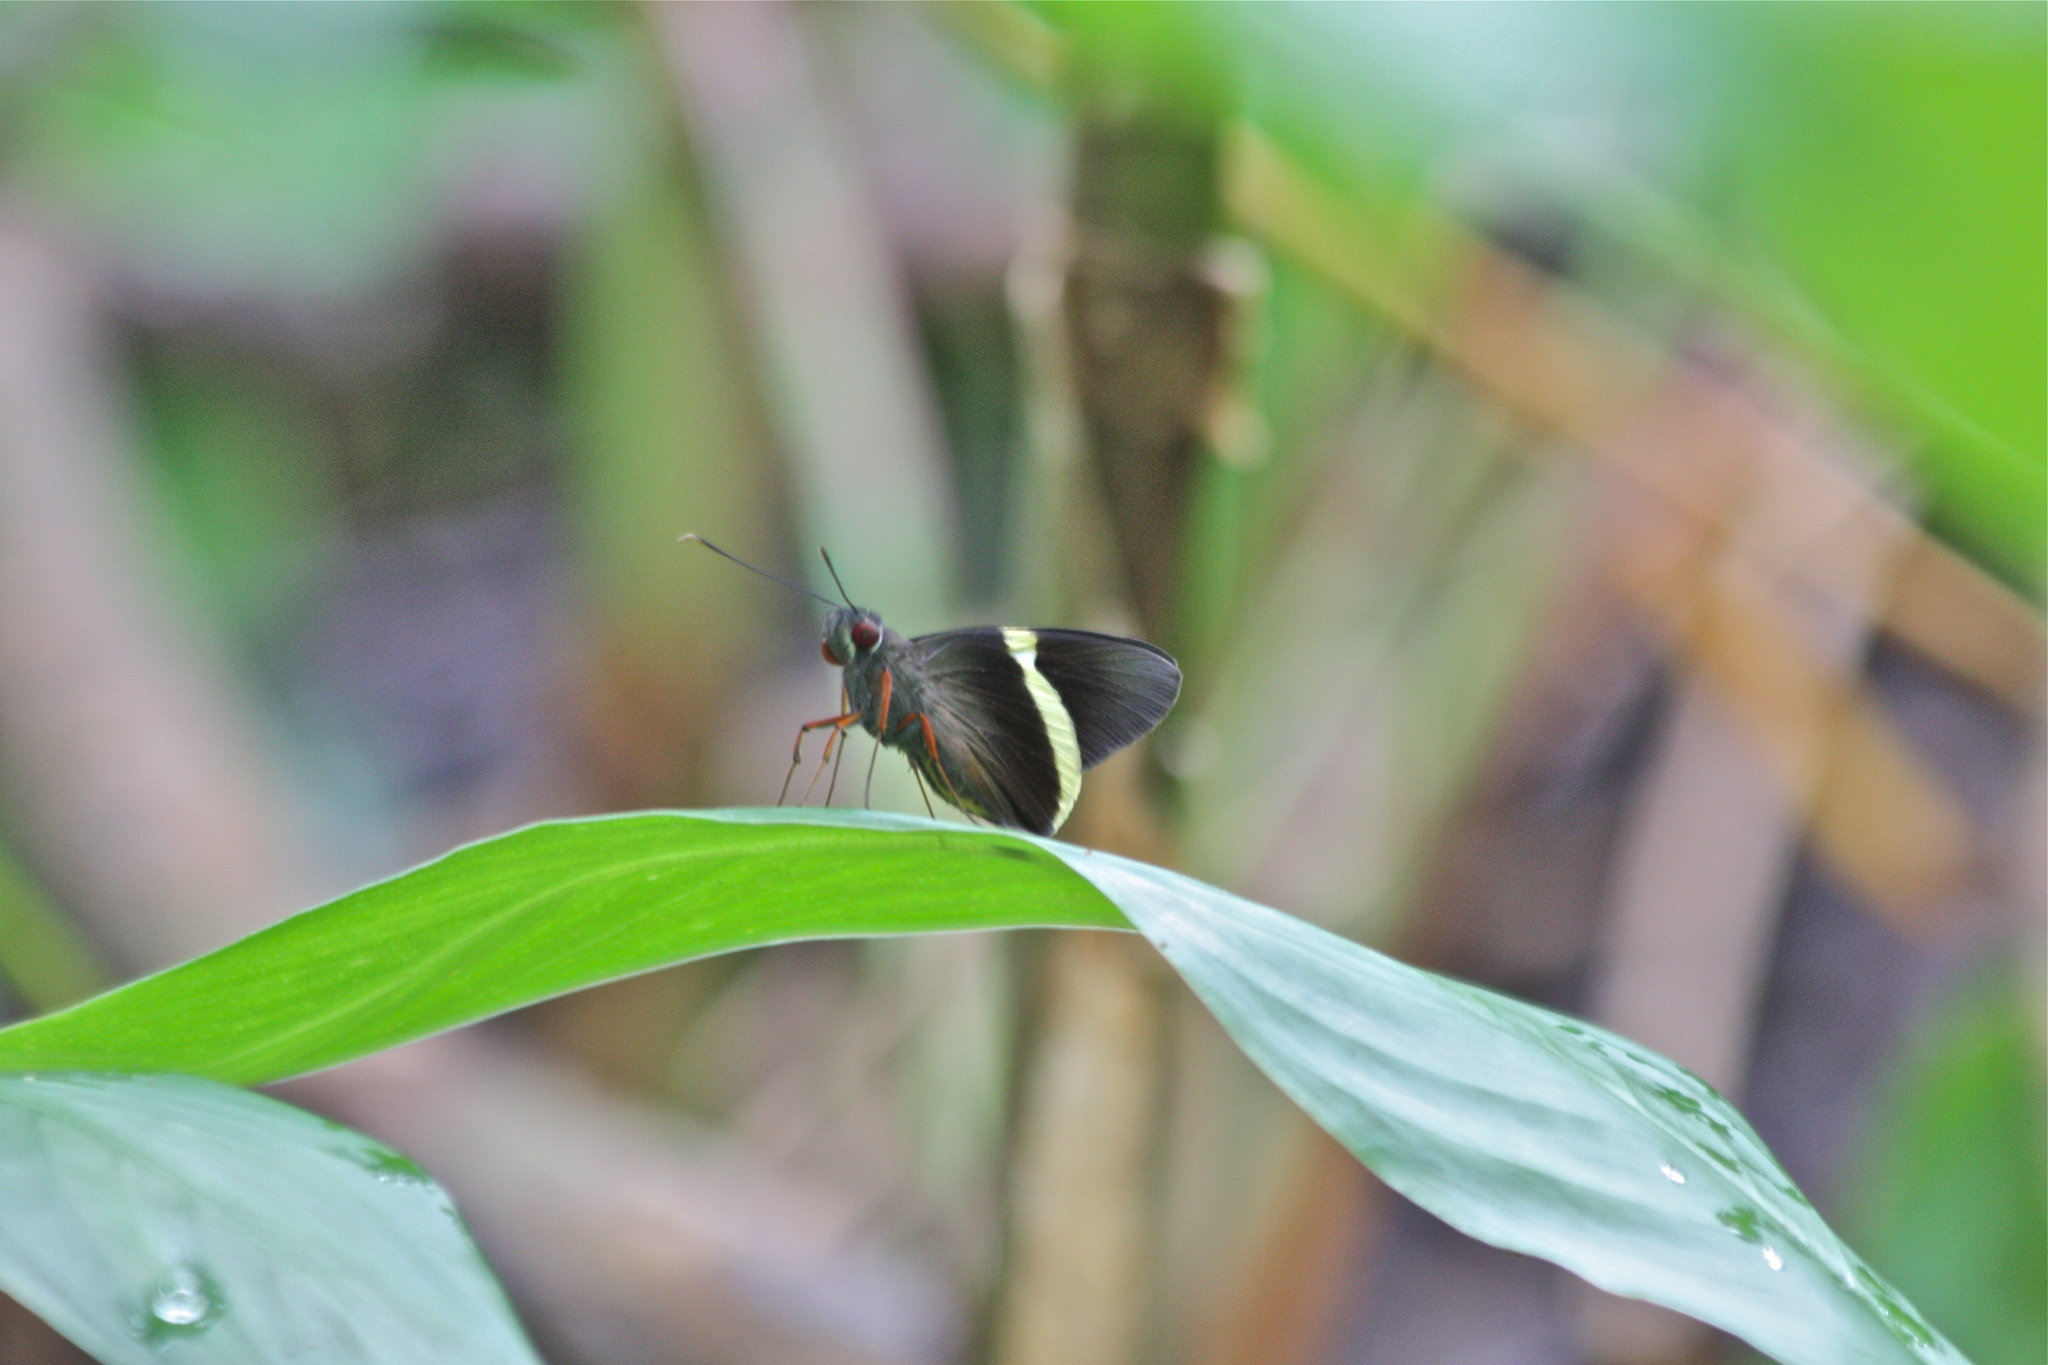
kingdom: Animalia
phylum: Arthropoda
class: Insecta
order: Lepidoptera
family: Hesperiidae
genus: Orses
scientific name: Orses cynisca
